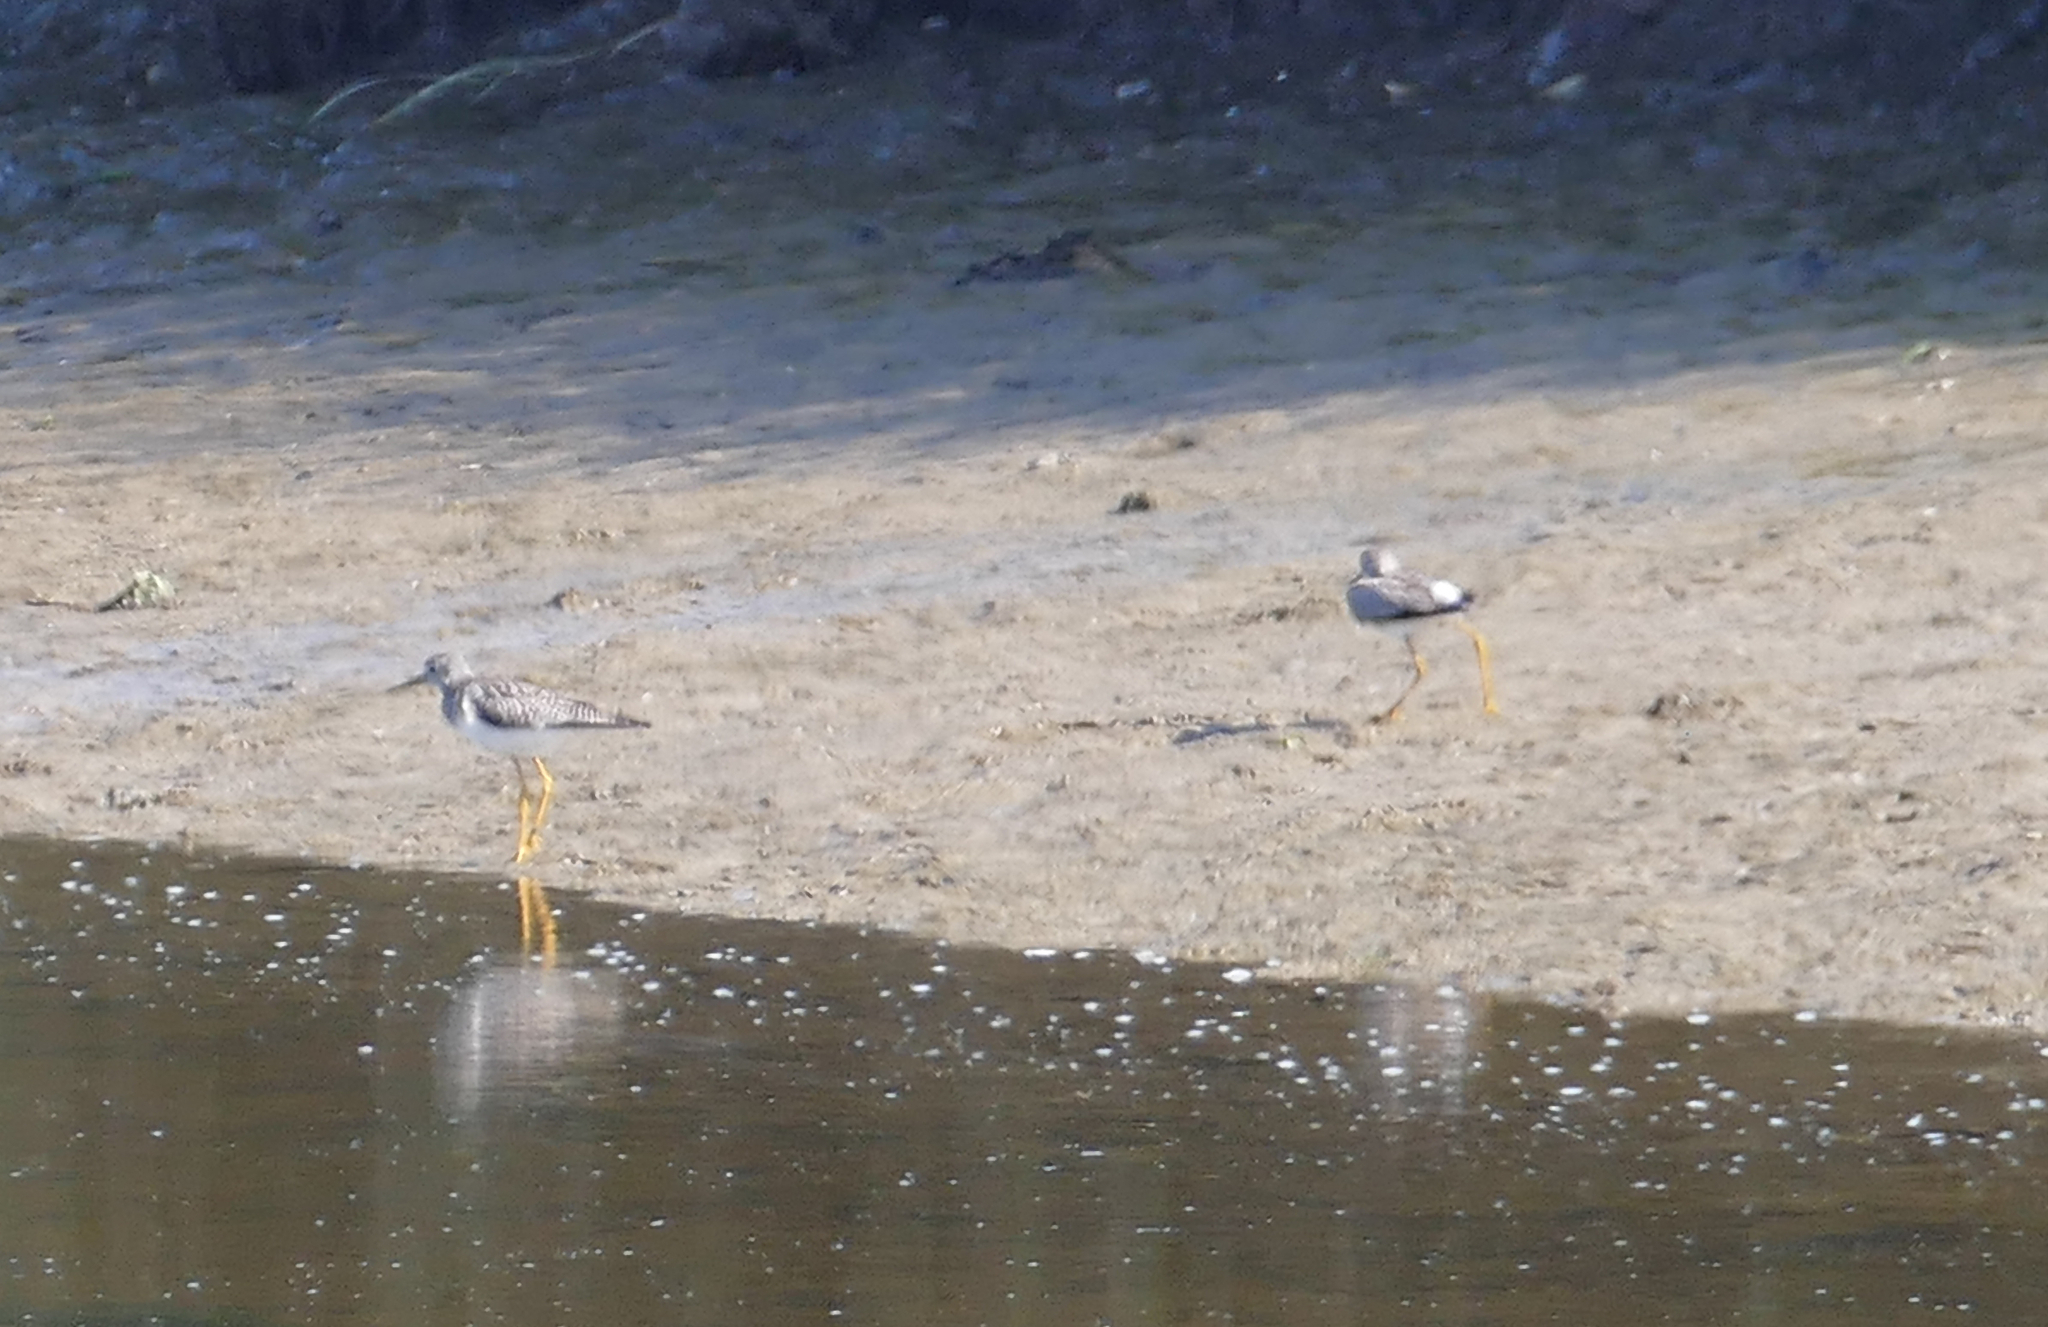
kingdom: Animalia
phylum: Chordata
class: Aves
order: Charadriiformes
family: Scolopacidae
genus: Tringa
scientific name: Tringa flavipes
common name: Lesser yellowlegs
